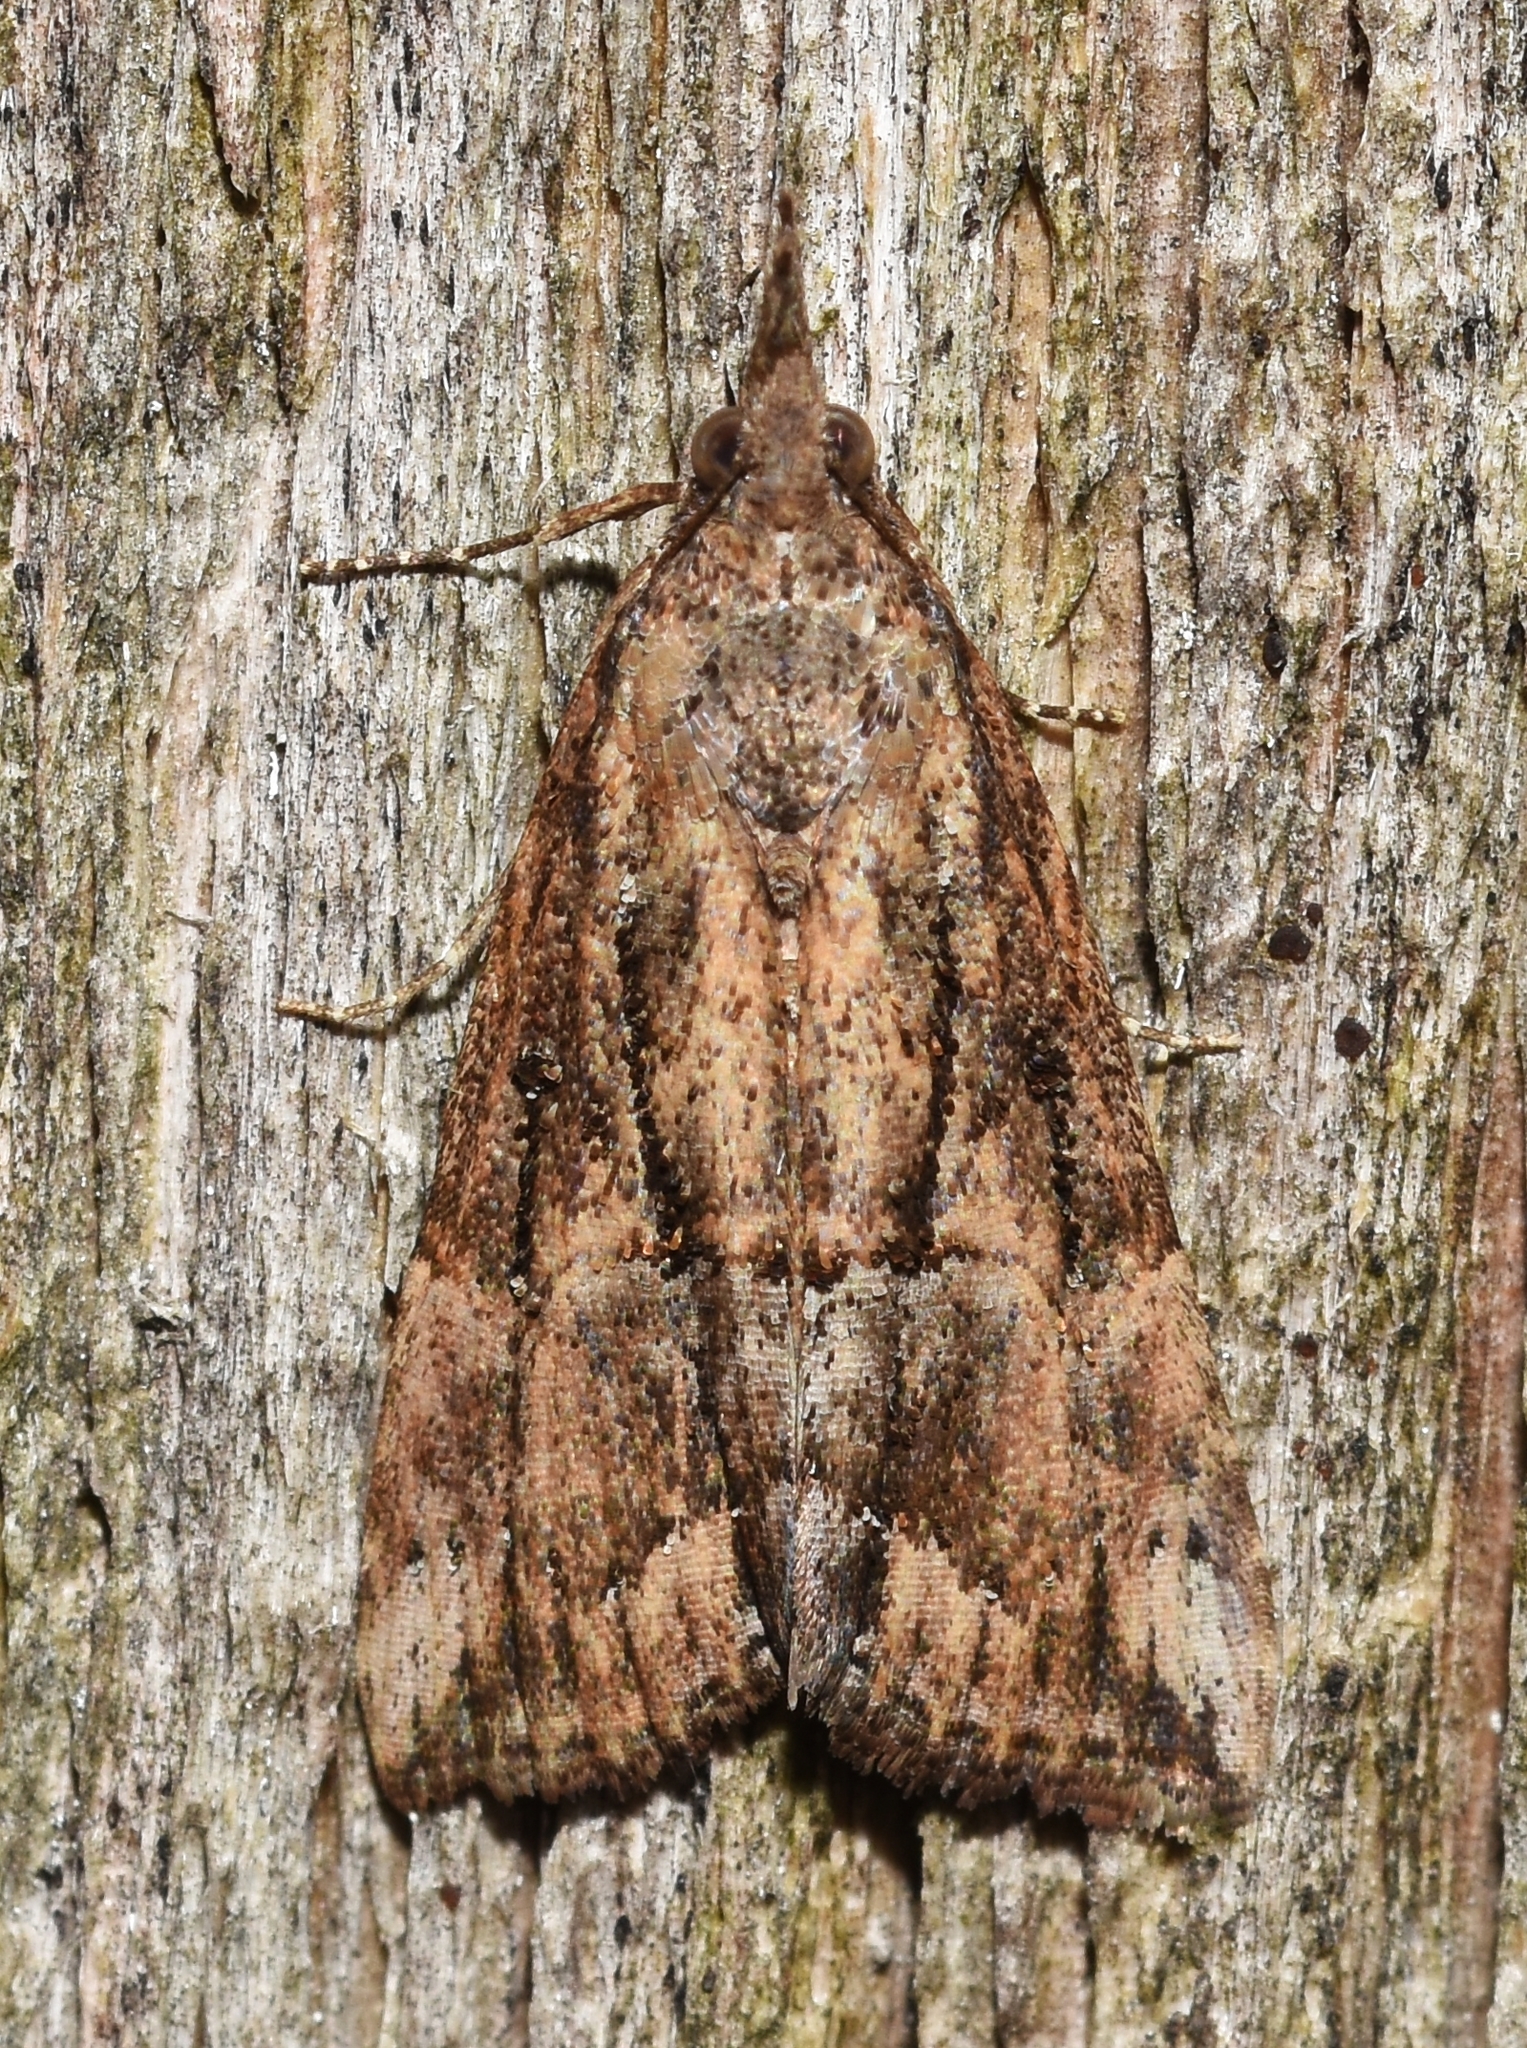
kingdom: Animalia
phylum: Arthropoda
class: Insecta
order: Lepidoptera
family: Erebidae
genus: Hypena
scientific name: Hypena scabra
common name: Green cloverworm
